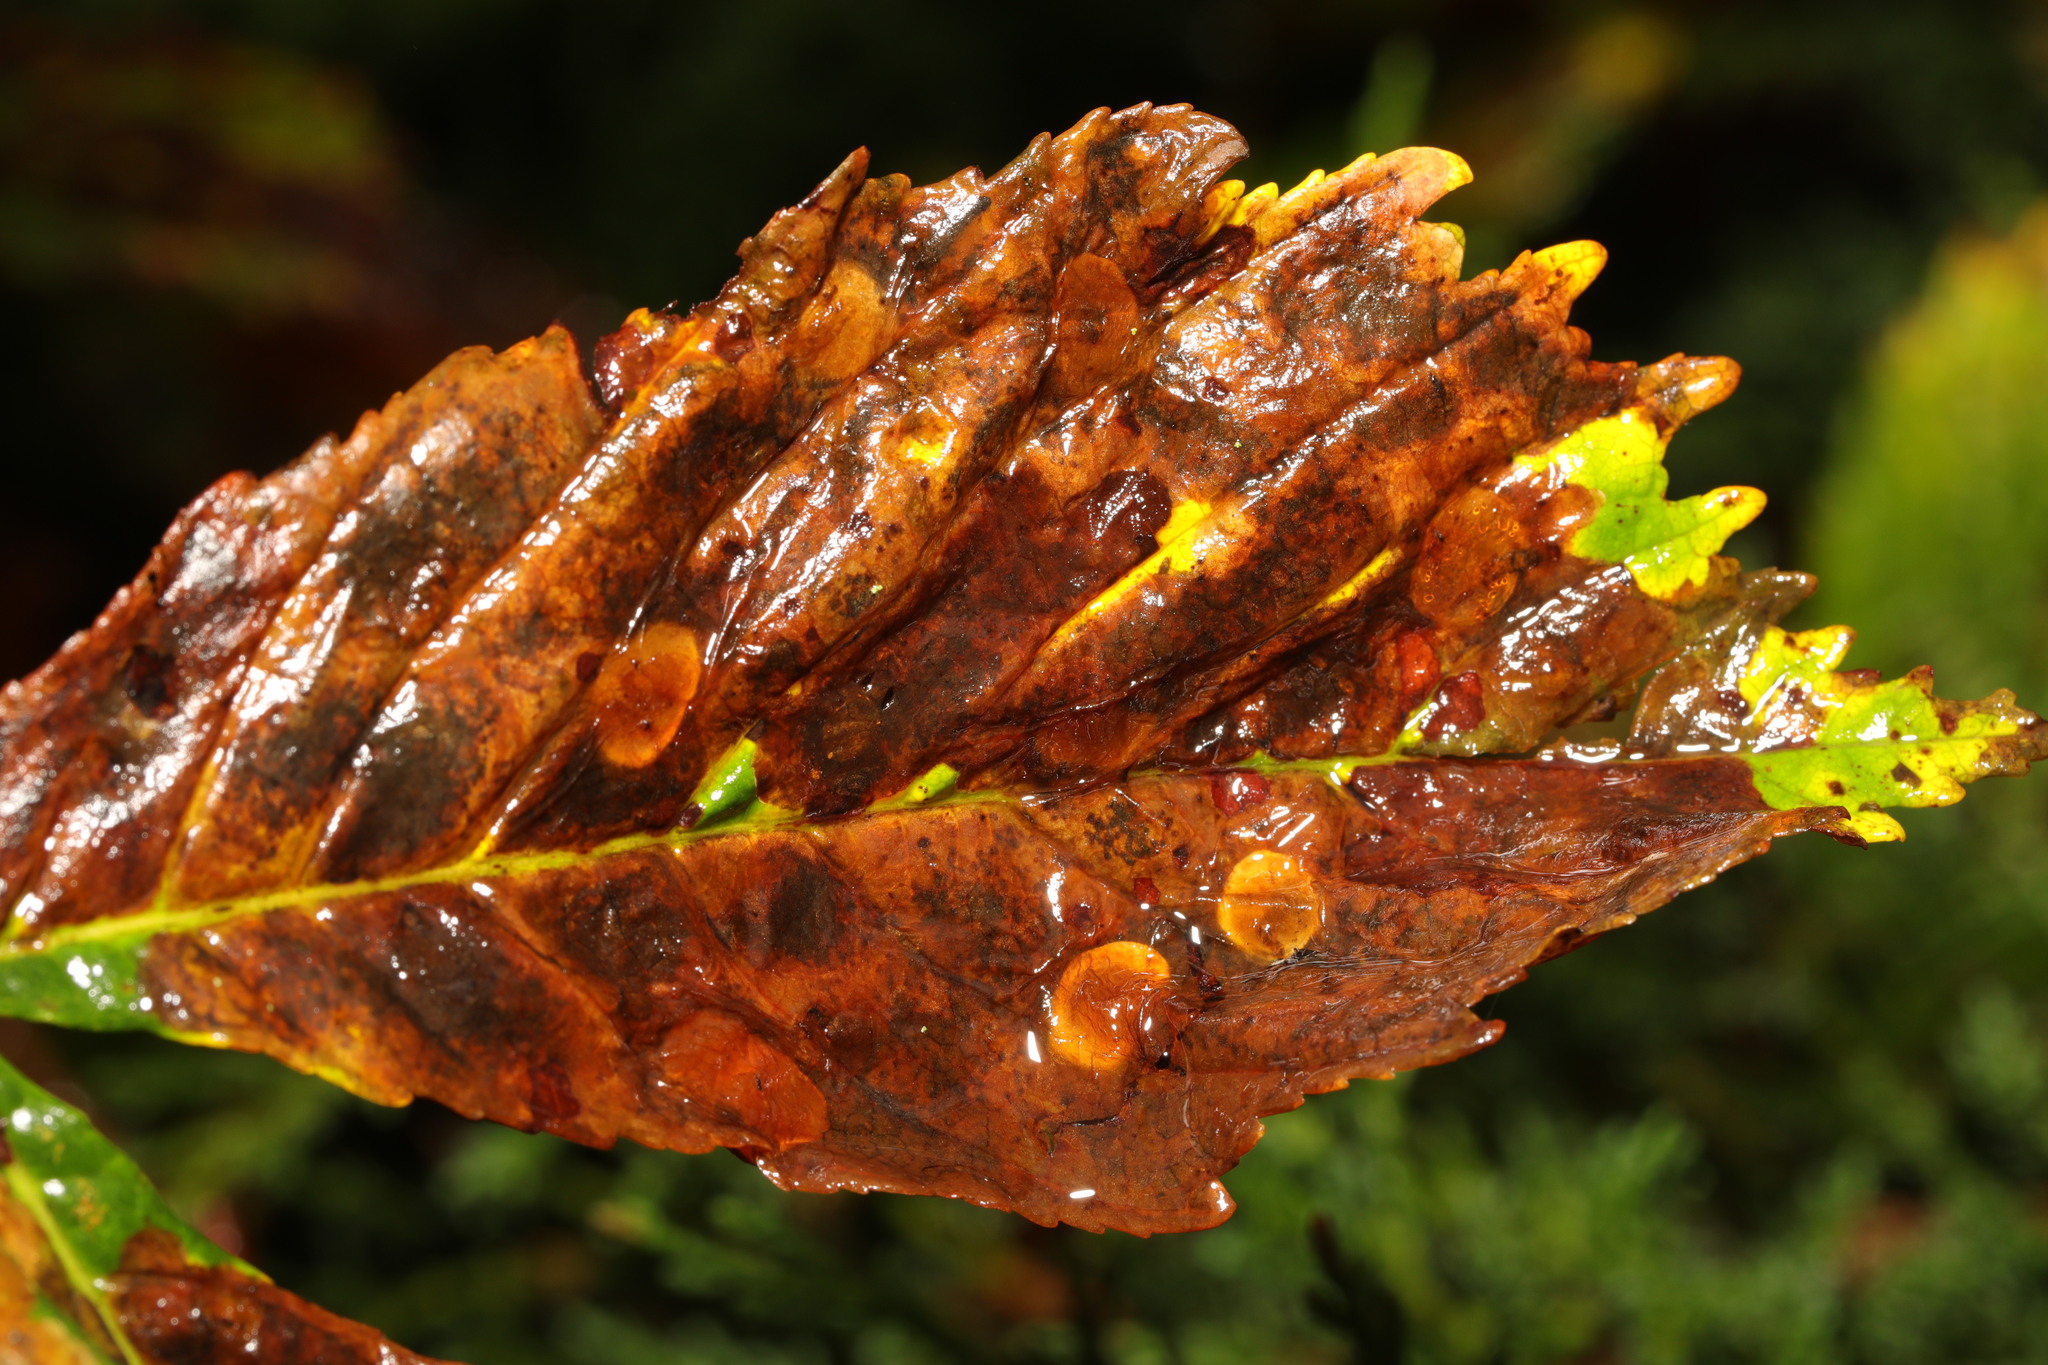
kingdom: Animalia
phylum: Arthropoda
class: Insecta
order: Lepidoptera
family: Gracillariidae
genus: Cameraria
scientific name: Cameraria ohridella
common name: Horse-chestnut leaf-miner
